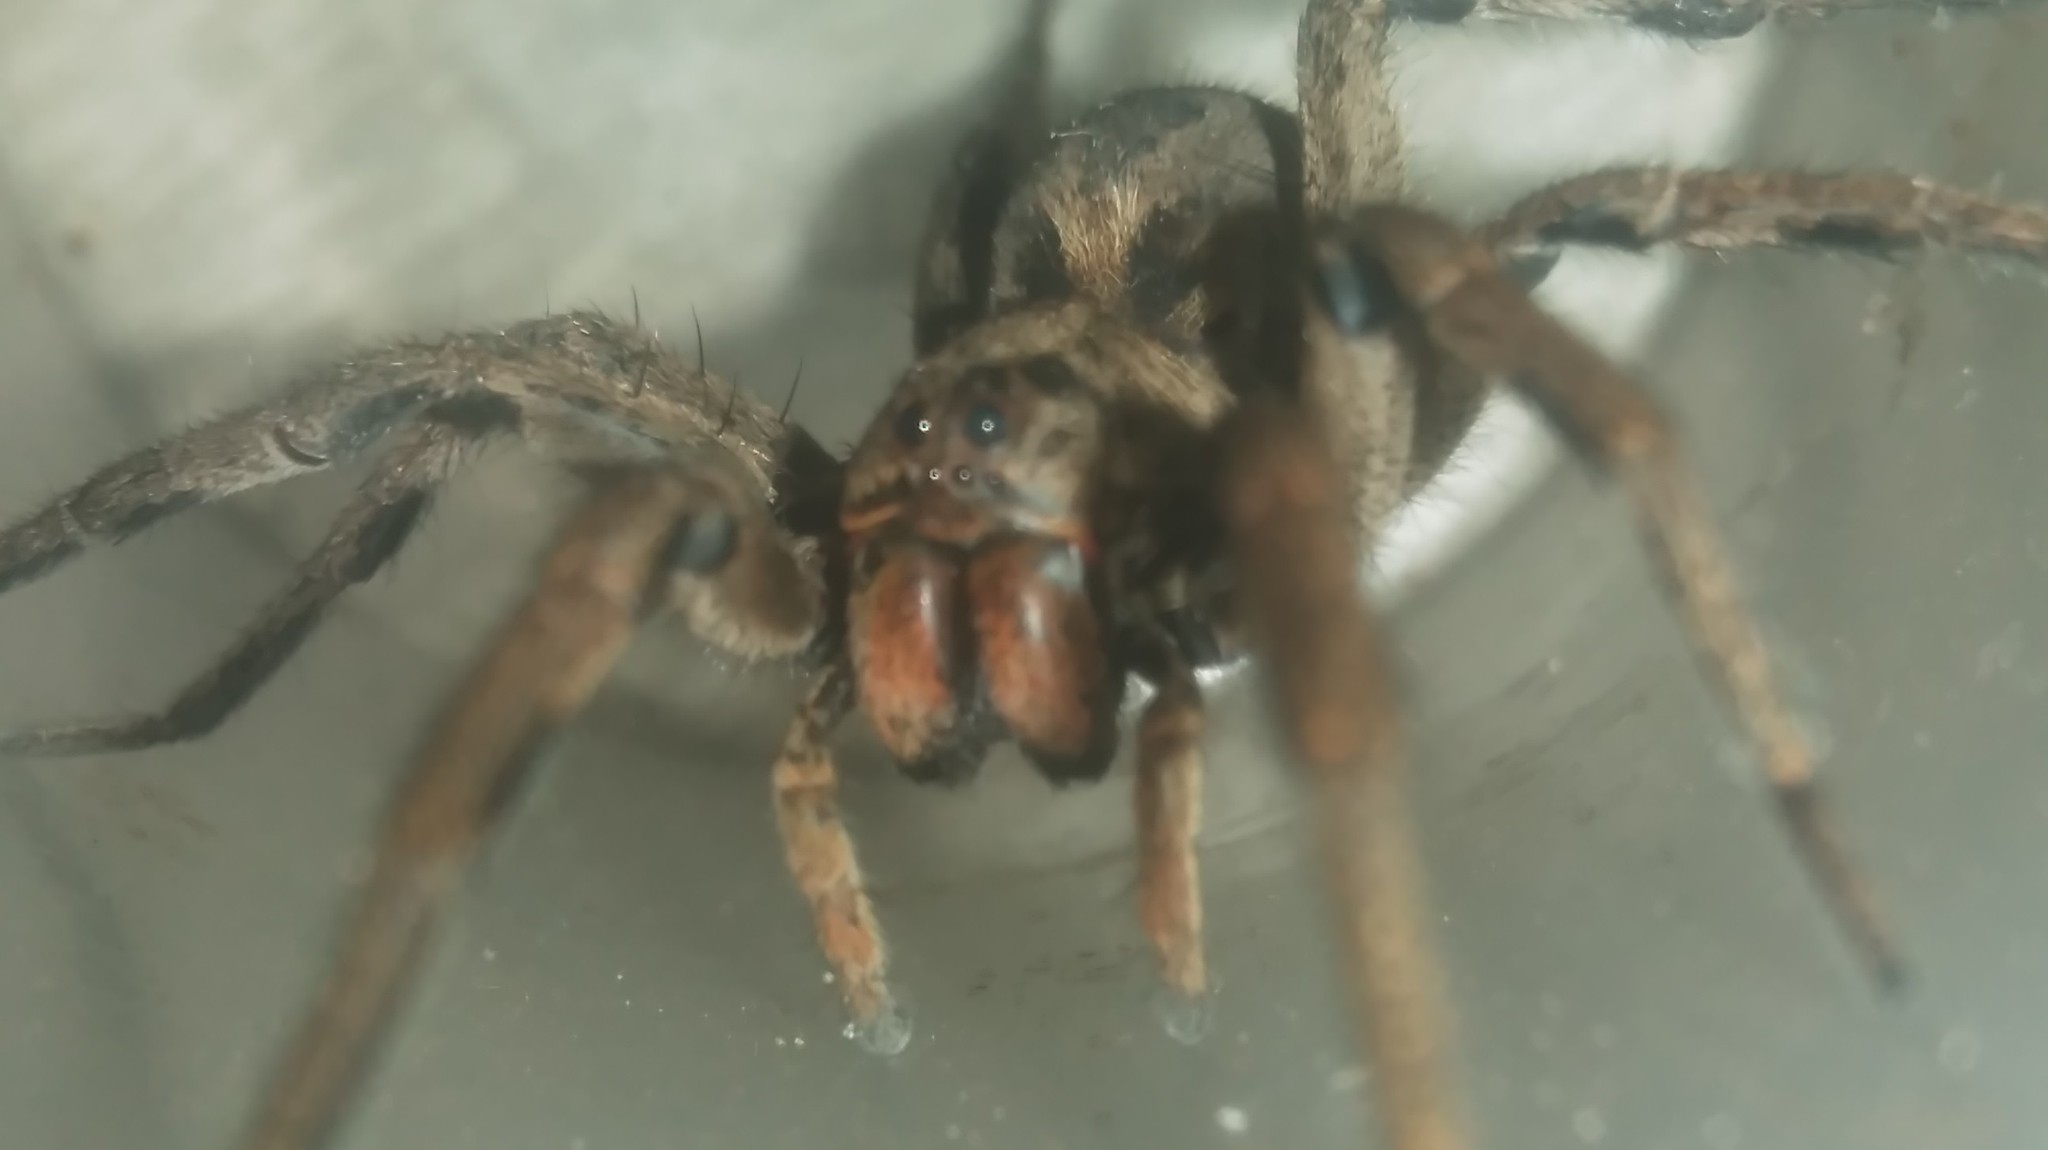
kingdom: Animalia
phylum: Arthropoda
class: Arachnida
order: Araneae
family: Lycosidae
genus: Lycosa
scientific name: Lycosa erythrognatha
